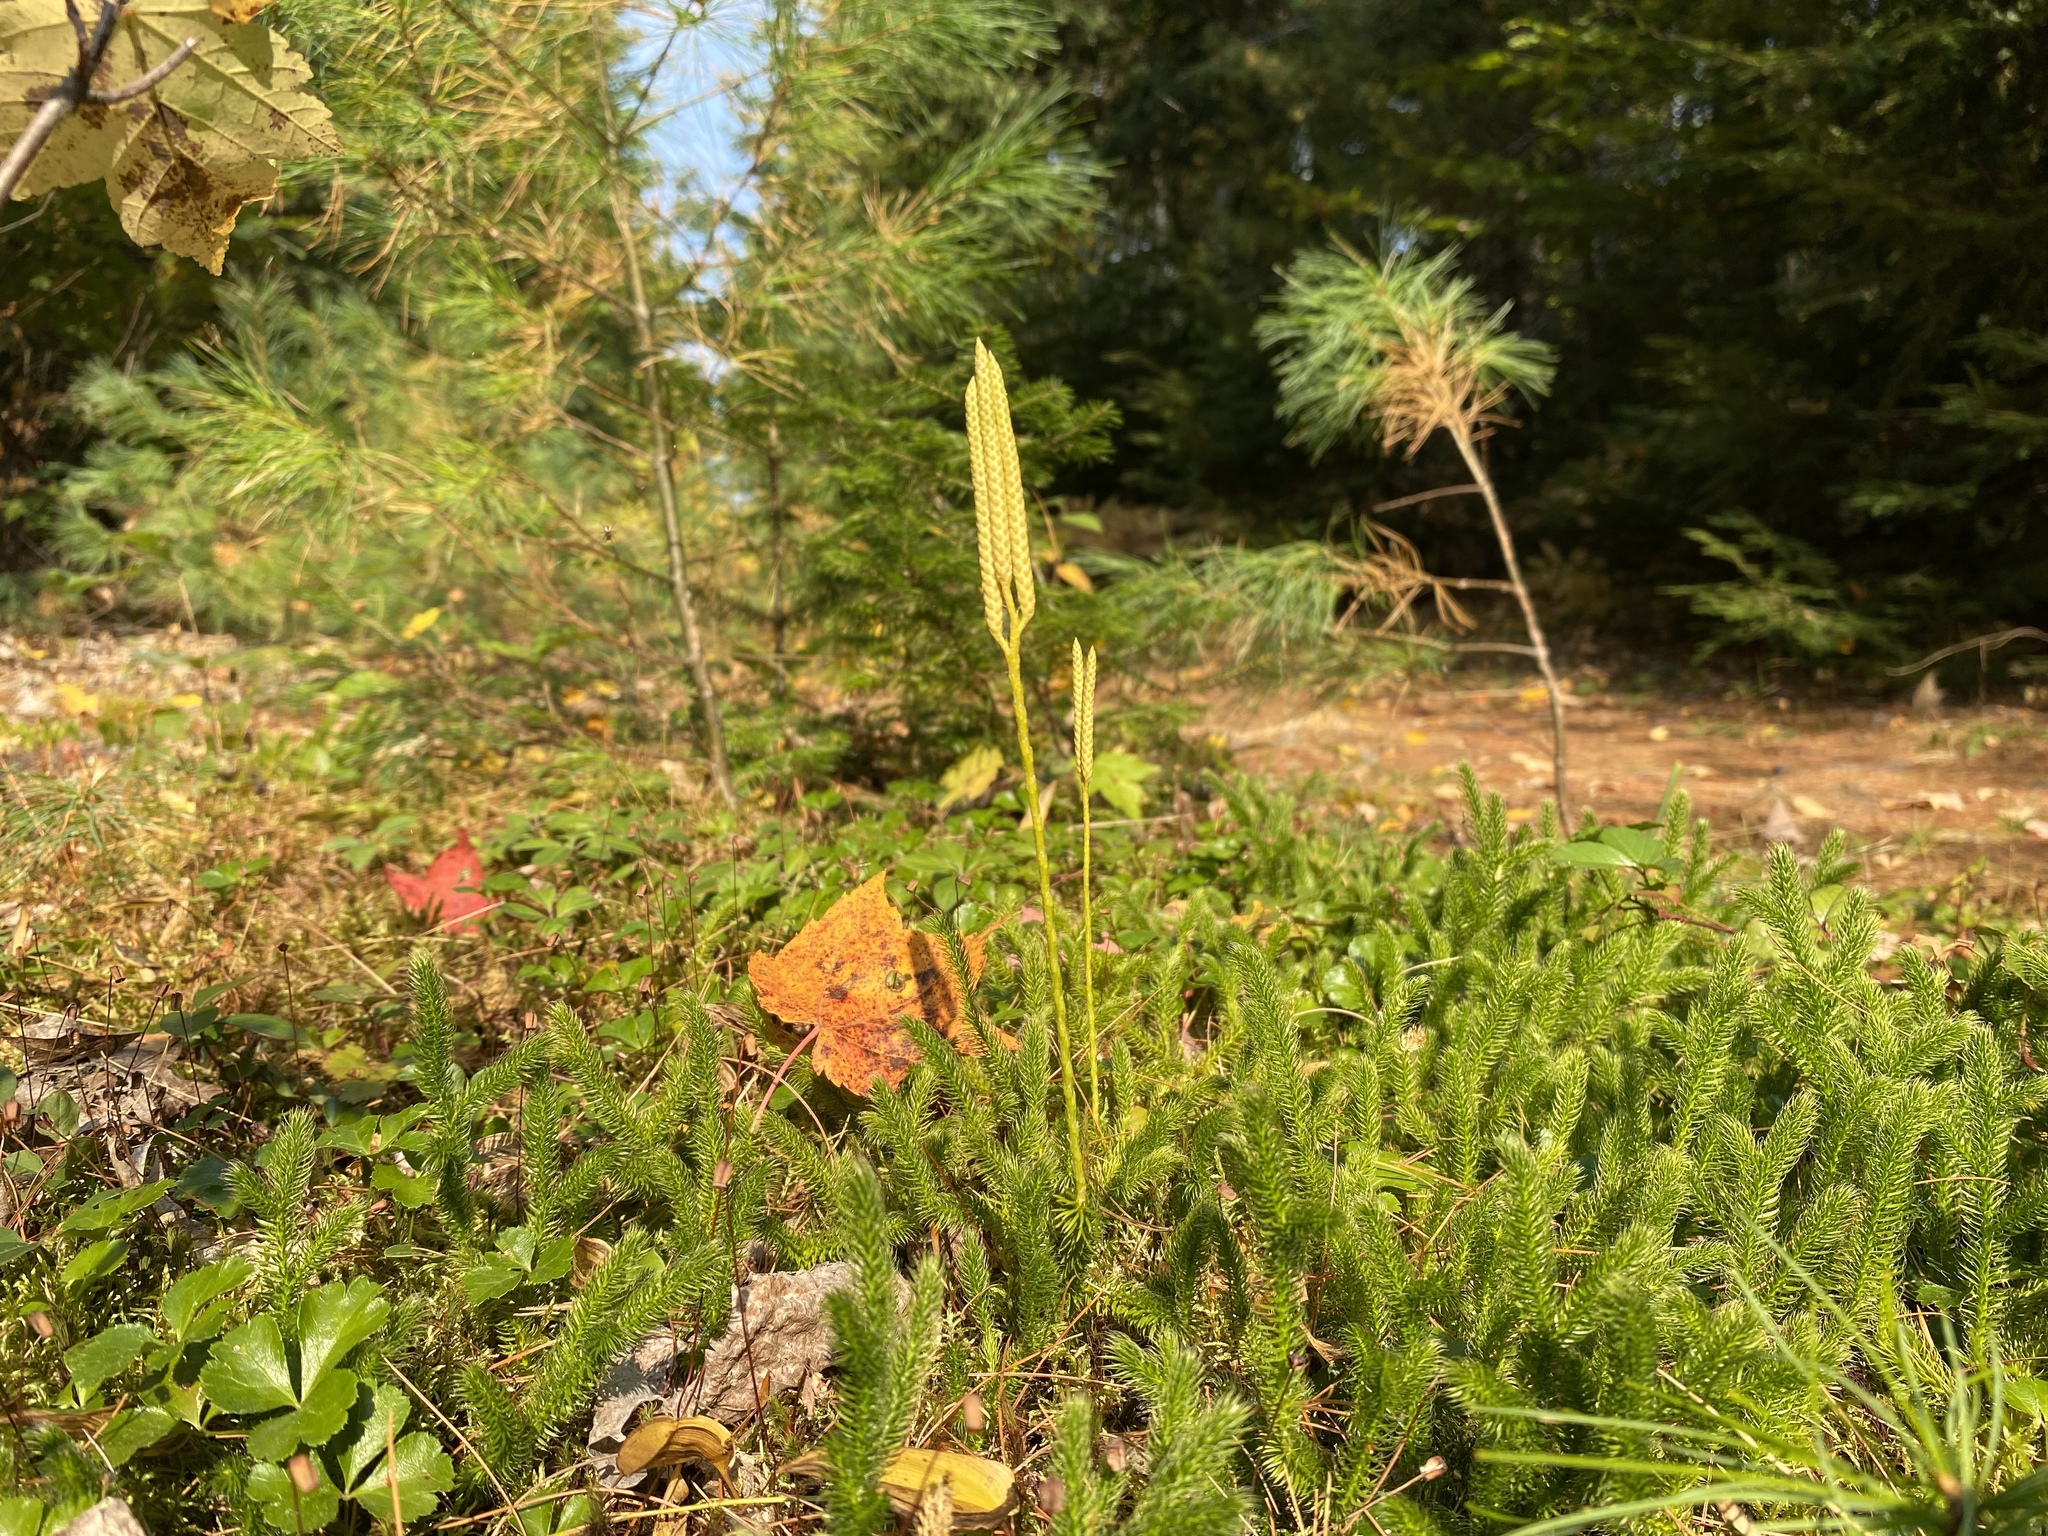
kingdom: Plantae
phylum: Tracheophyta
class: Lycopodiopsida
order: Lycopodiales
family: Lycopodiaceae
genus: Lycopodium
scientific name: Lycopodium clavatum
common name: Stag's-horn clubmoss
